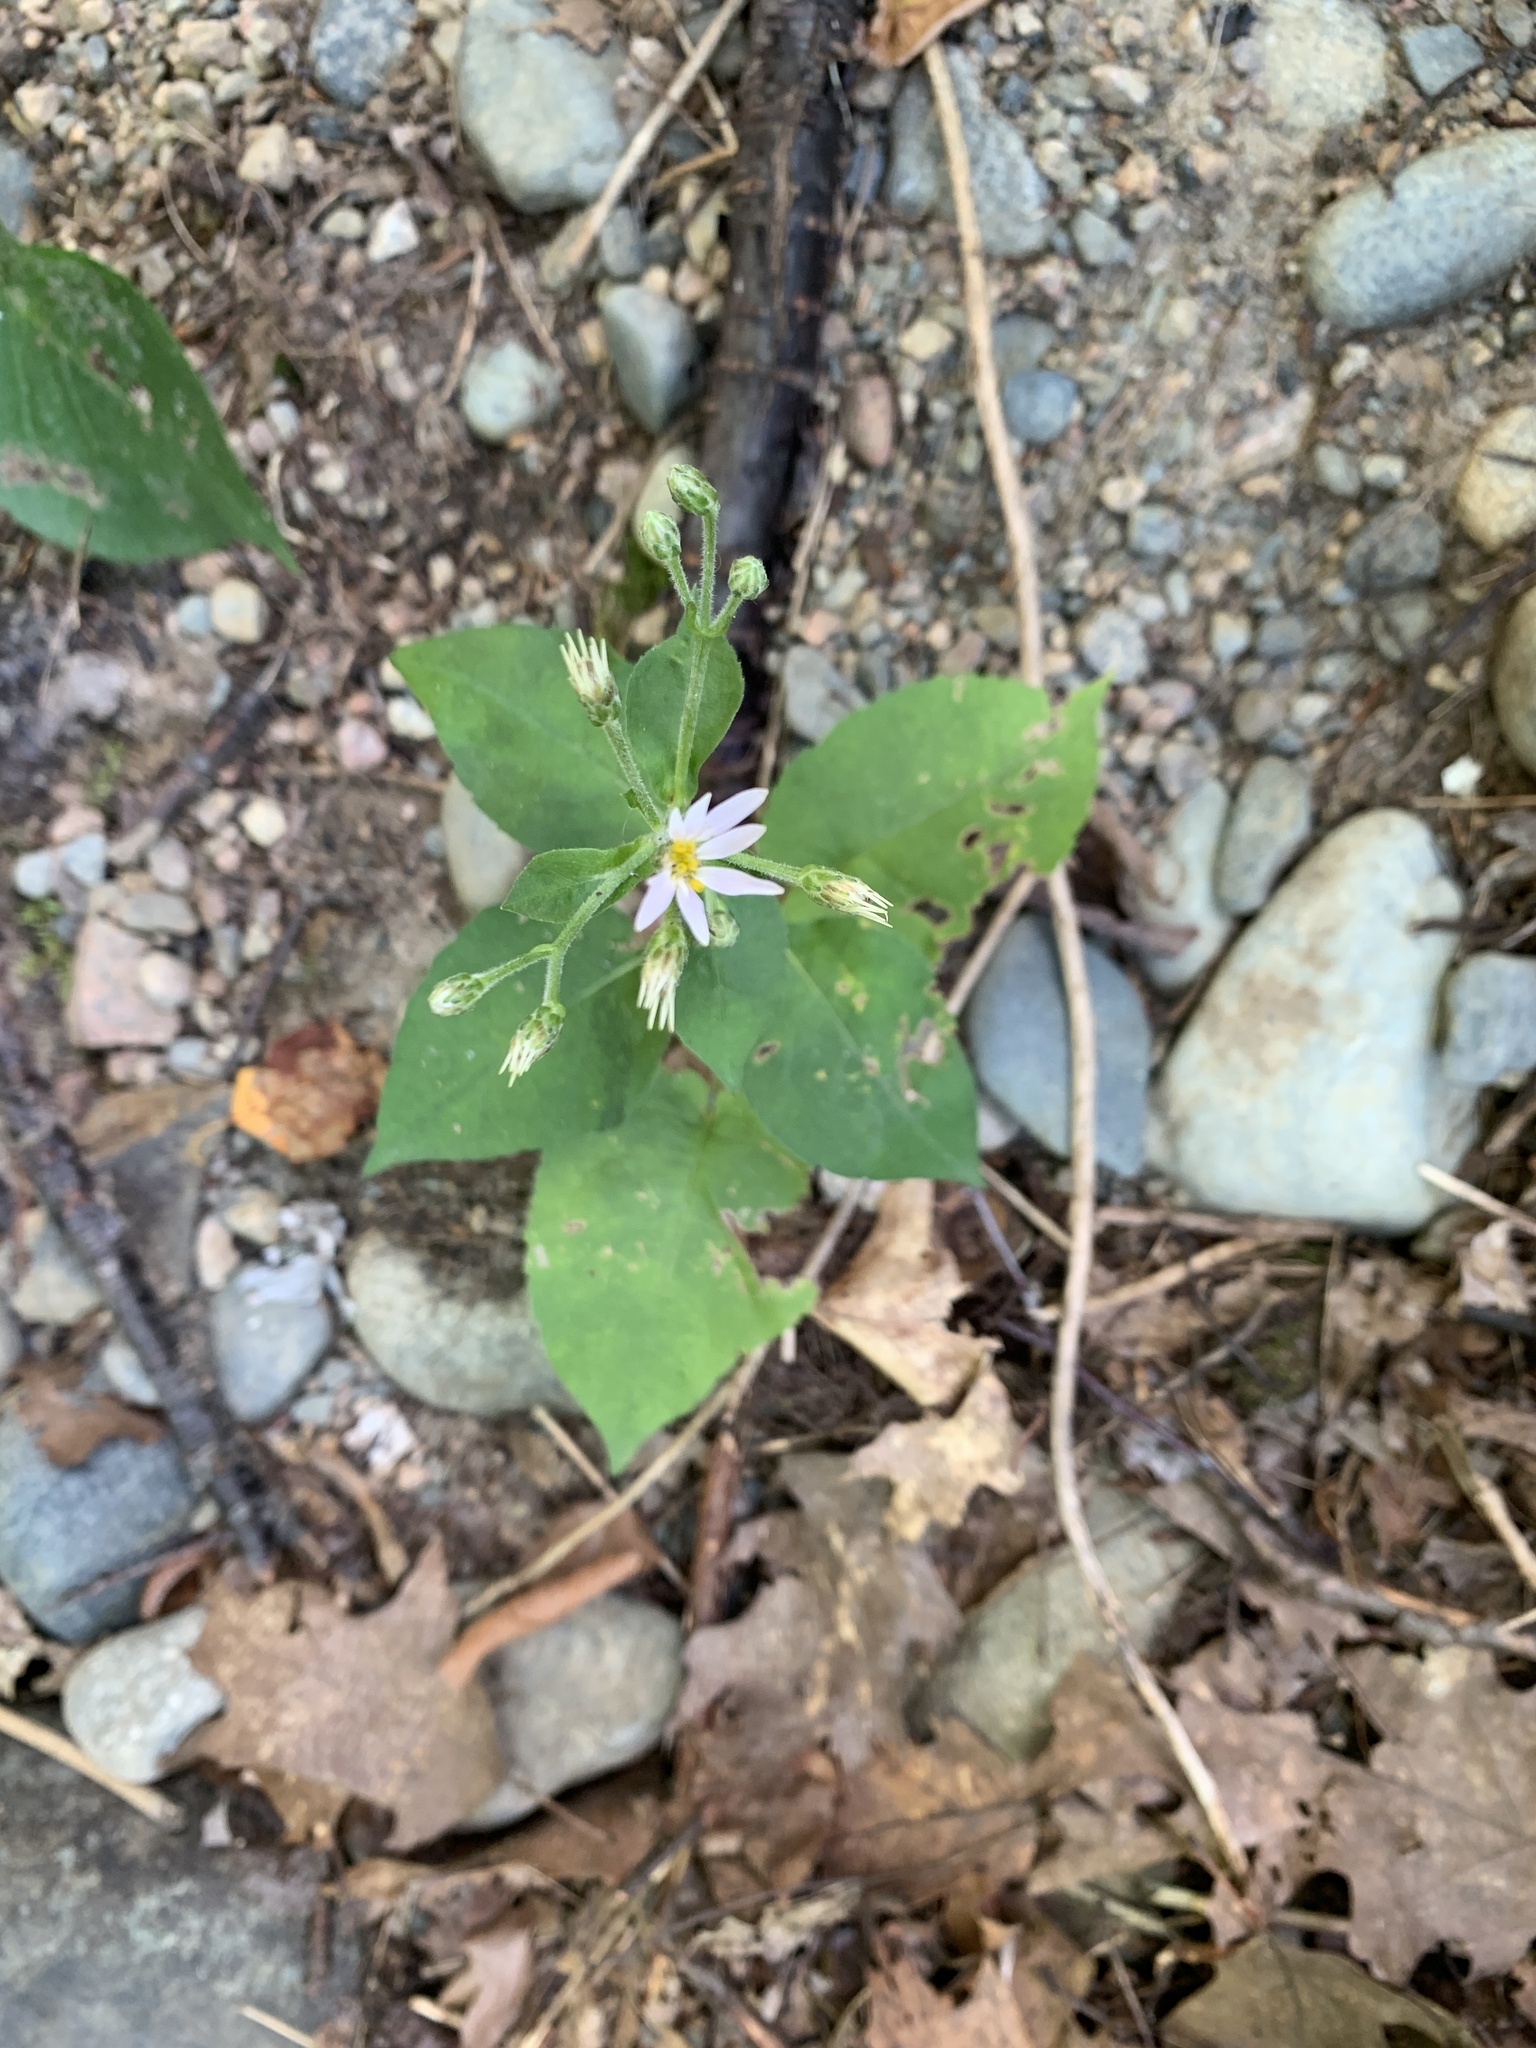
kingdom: Plantae
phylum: Tracheophyta
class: Magnoliopsida
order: Asterales
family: Asteraceae
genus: Eurybia
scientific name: Eurybia macrophylla
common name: Big-leaved aster
